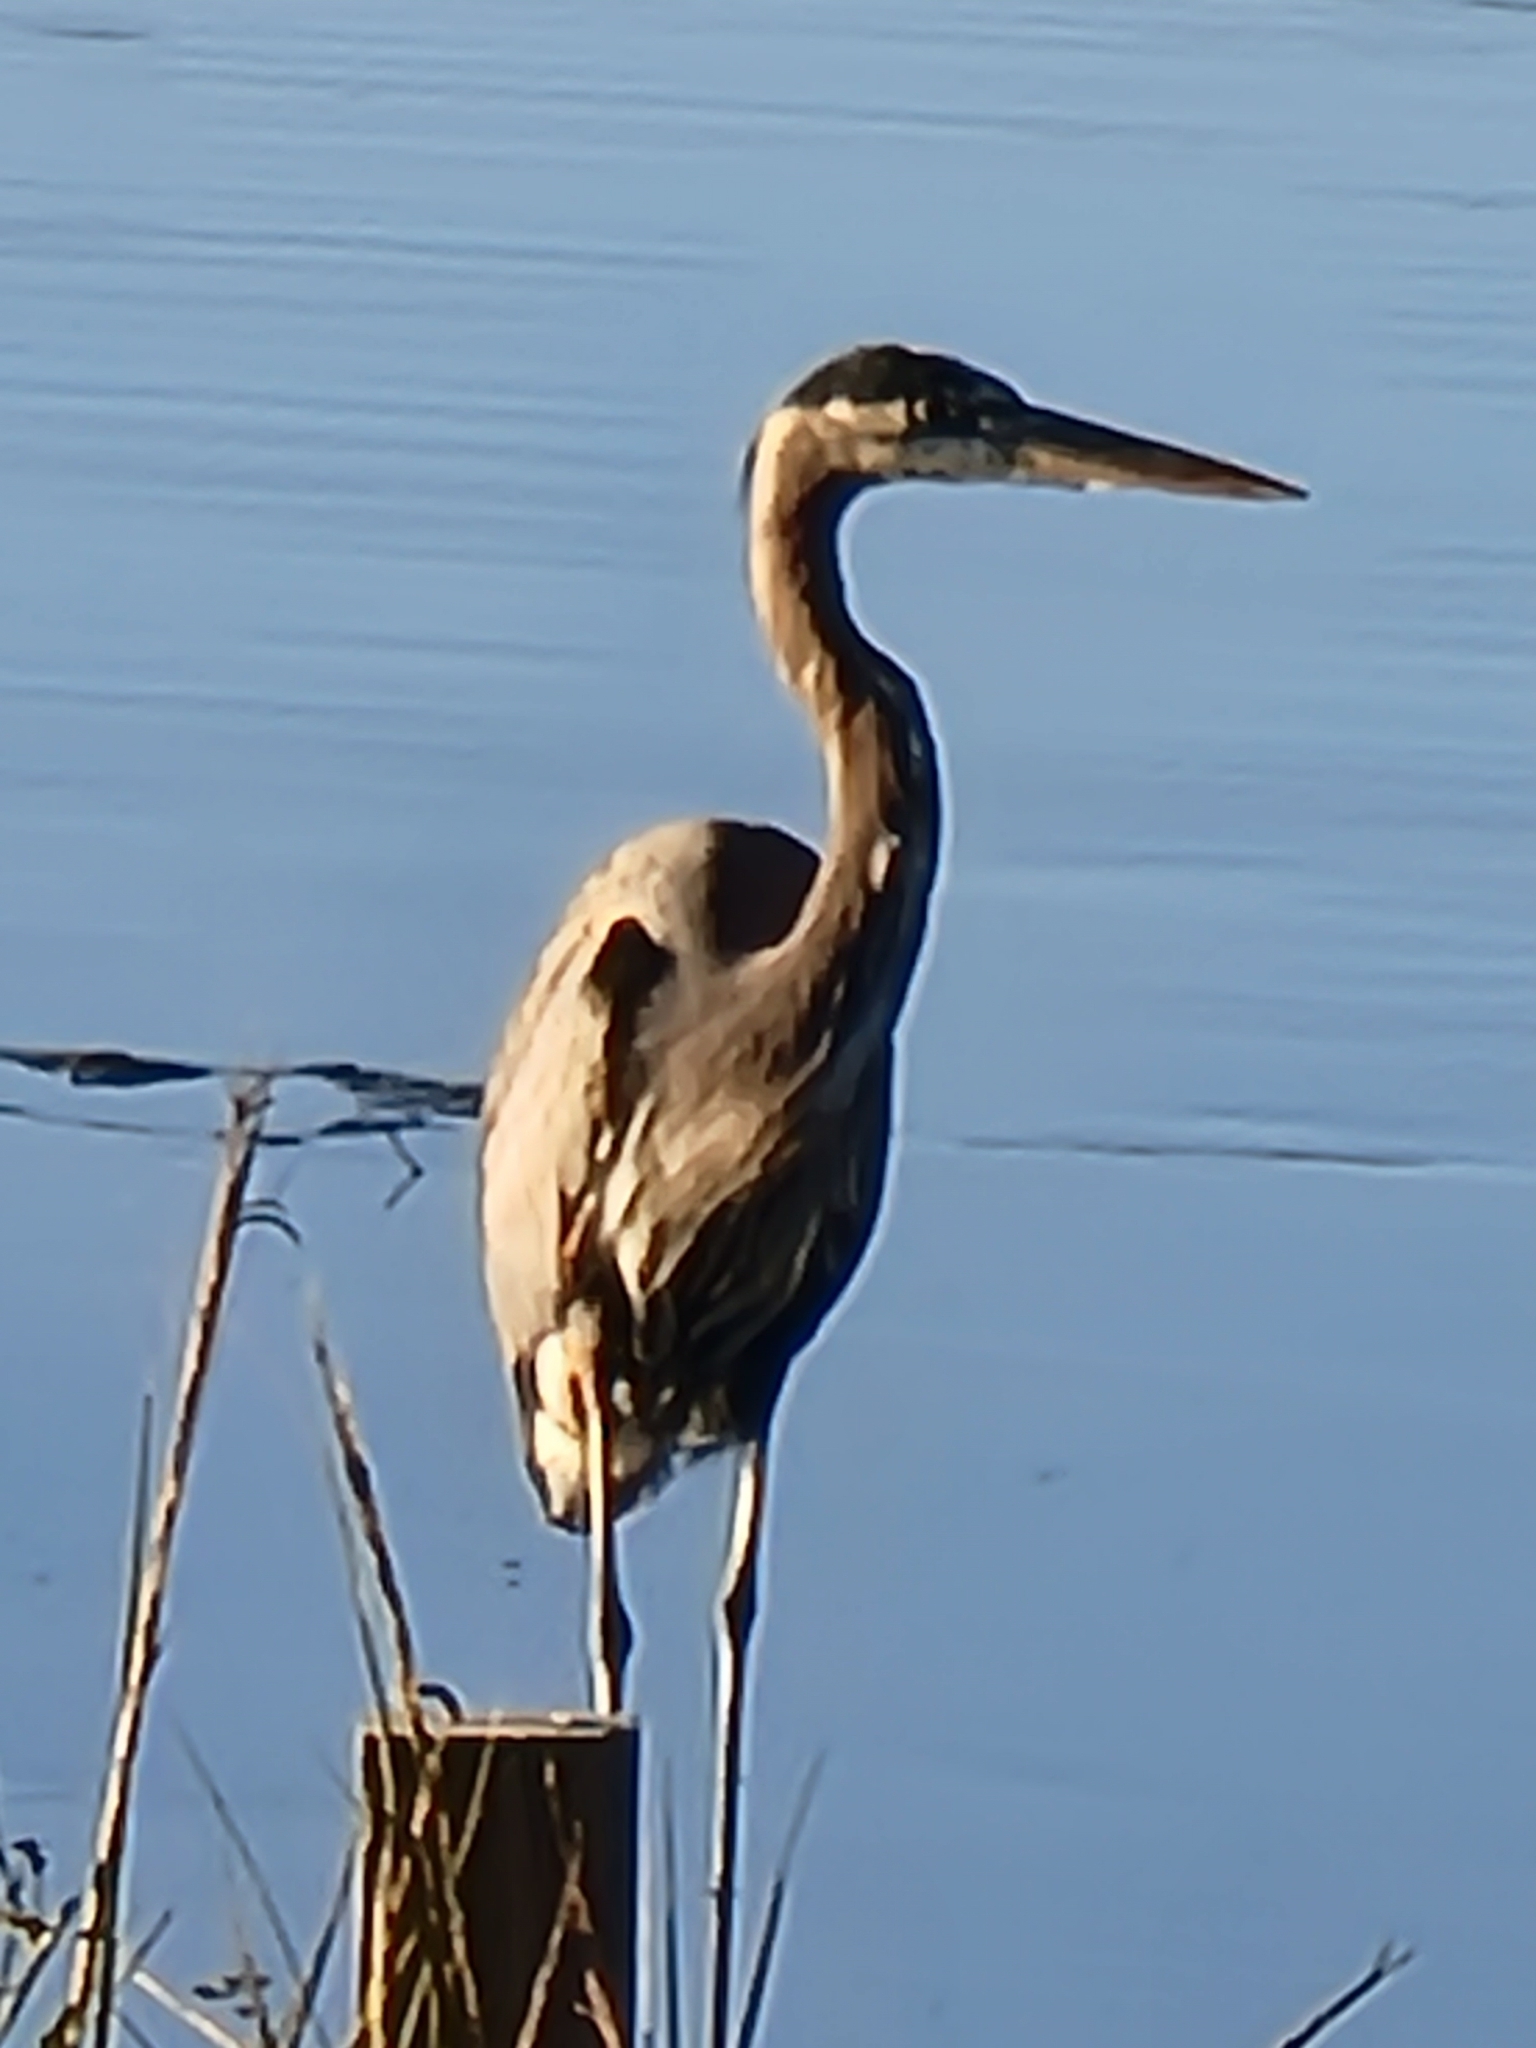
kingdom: Animalia
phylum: Chordata
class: Aves
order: Pelecaniformes
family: Ardeidae
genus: Ardea
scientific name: Ardea herodias
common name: Great blue heron
